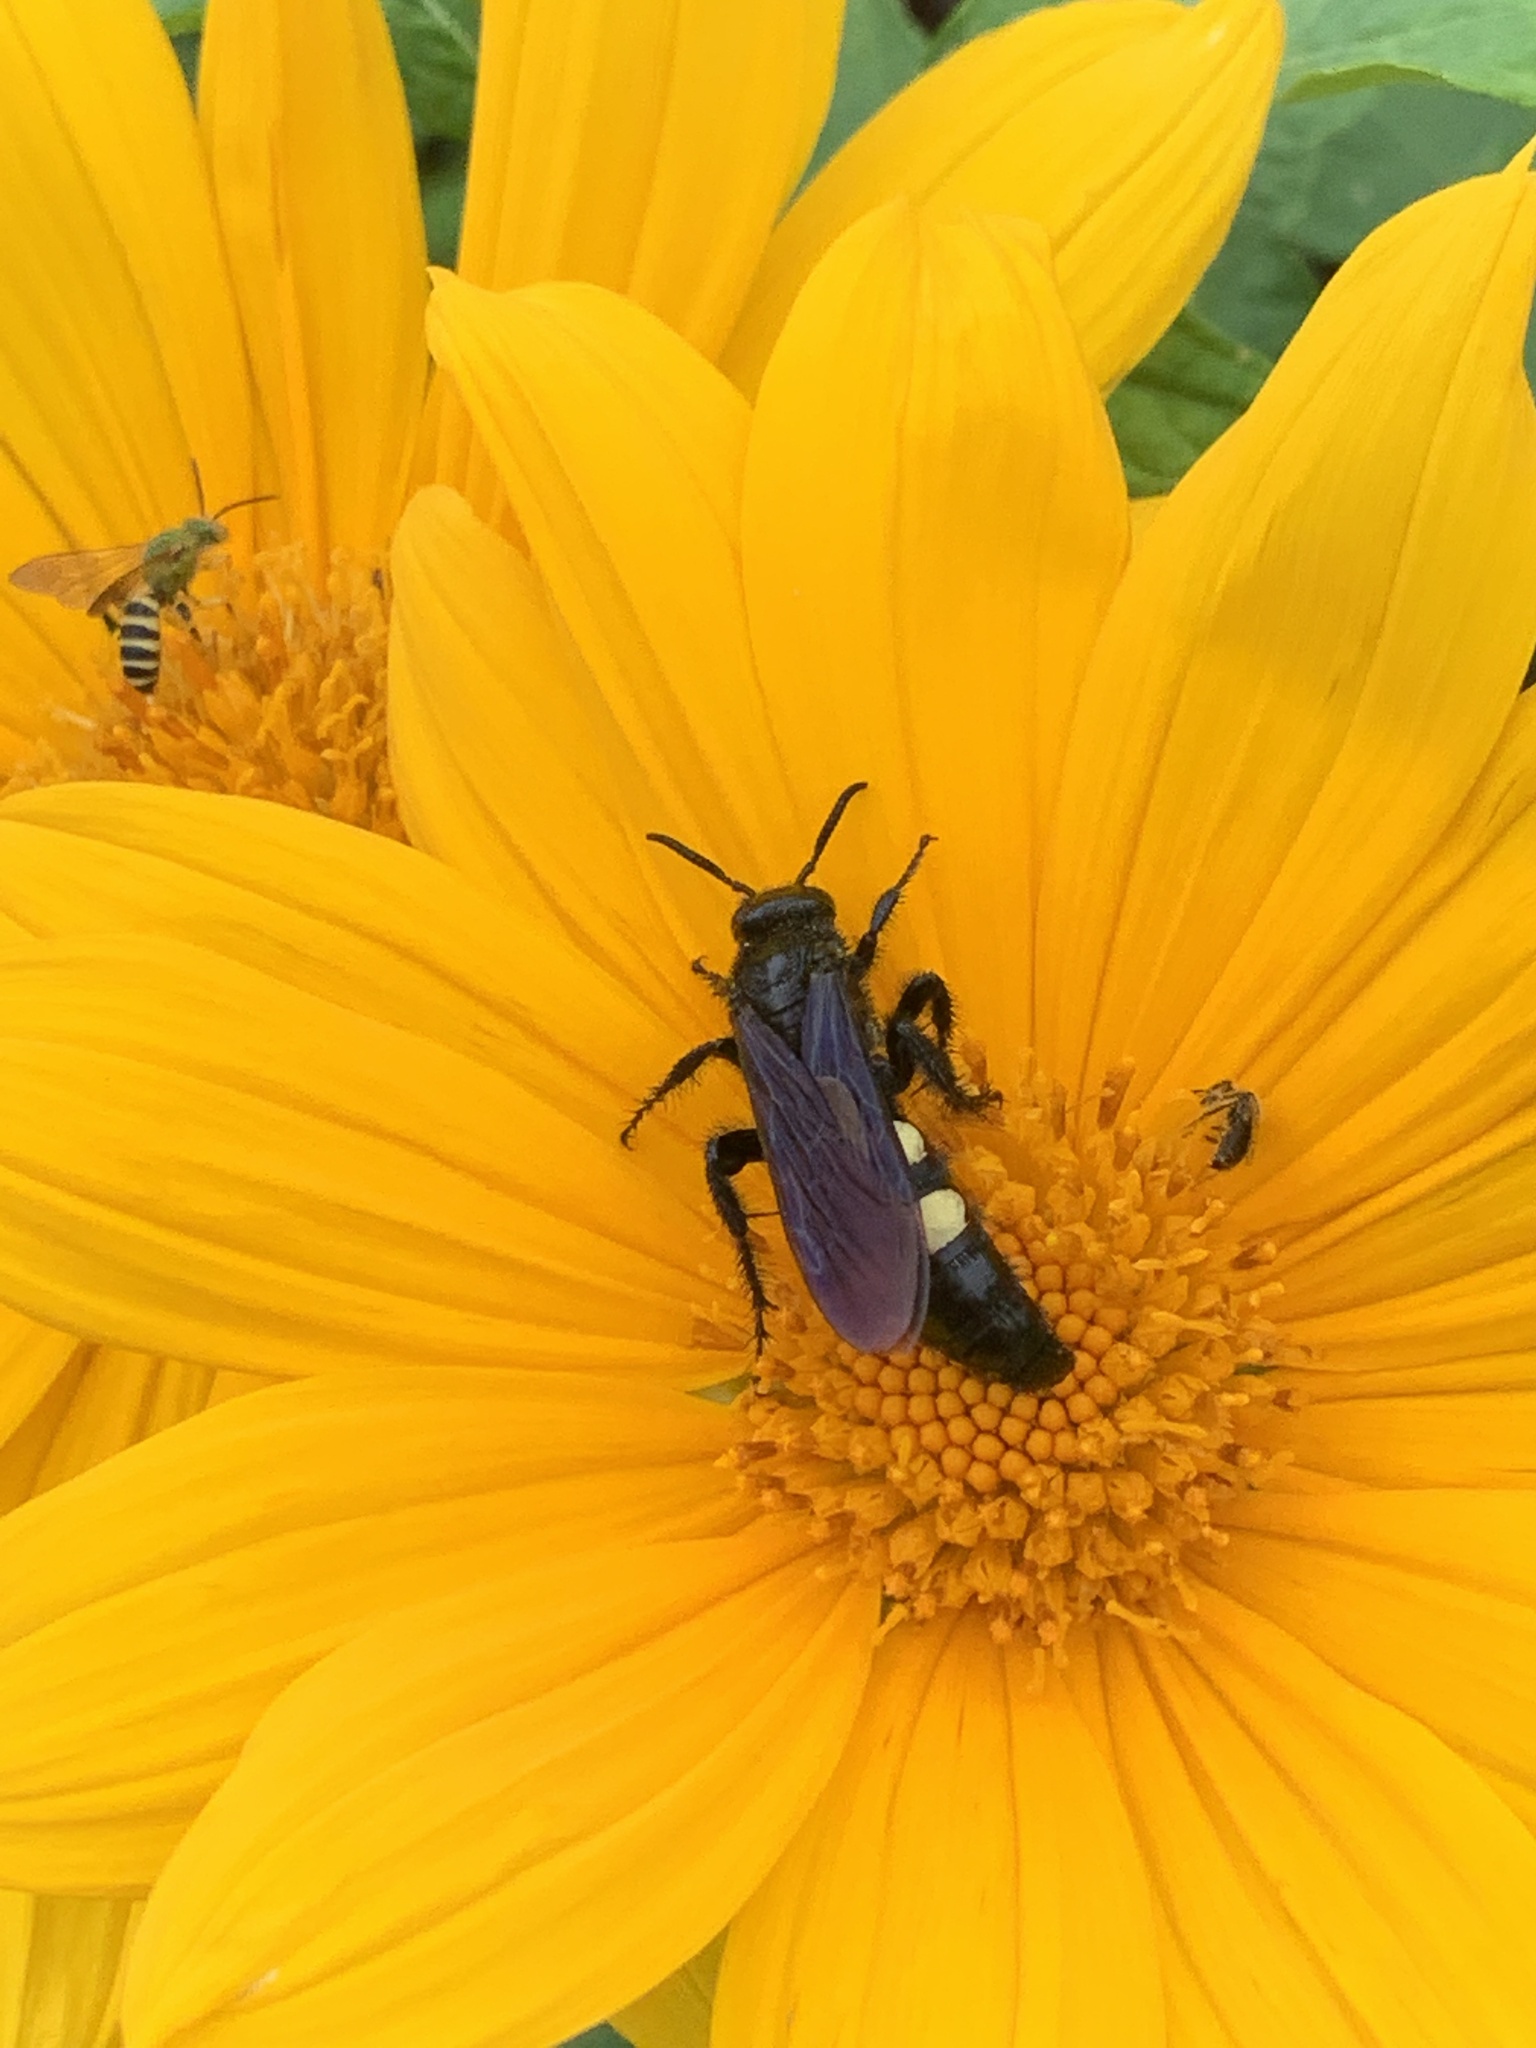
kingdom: Animalia
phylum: Arthropoda
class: Insecta
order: Hymenoptera
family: Scoliidae
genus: Pygodasis
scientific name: Pygodasis
